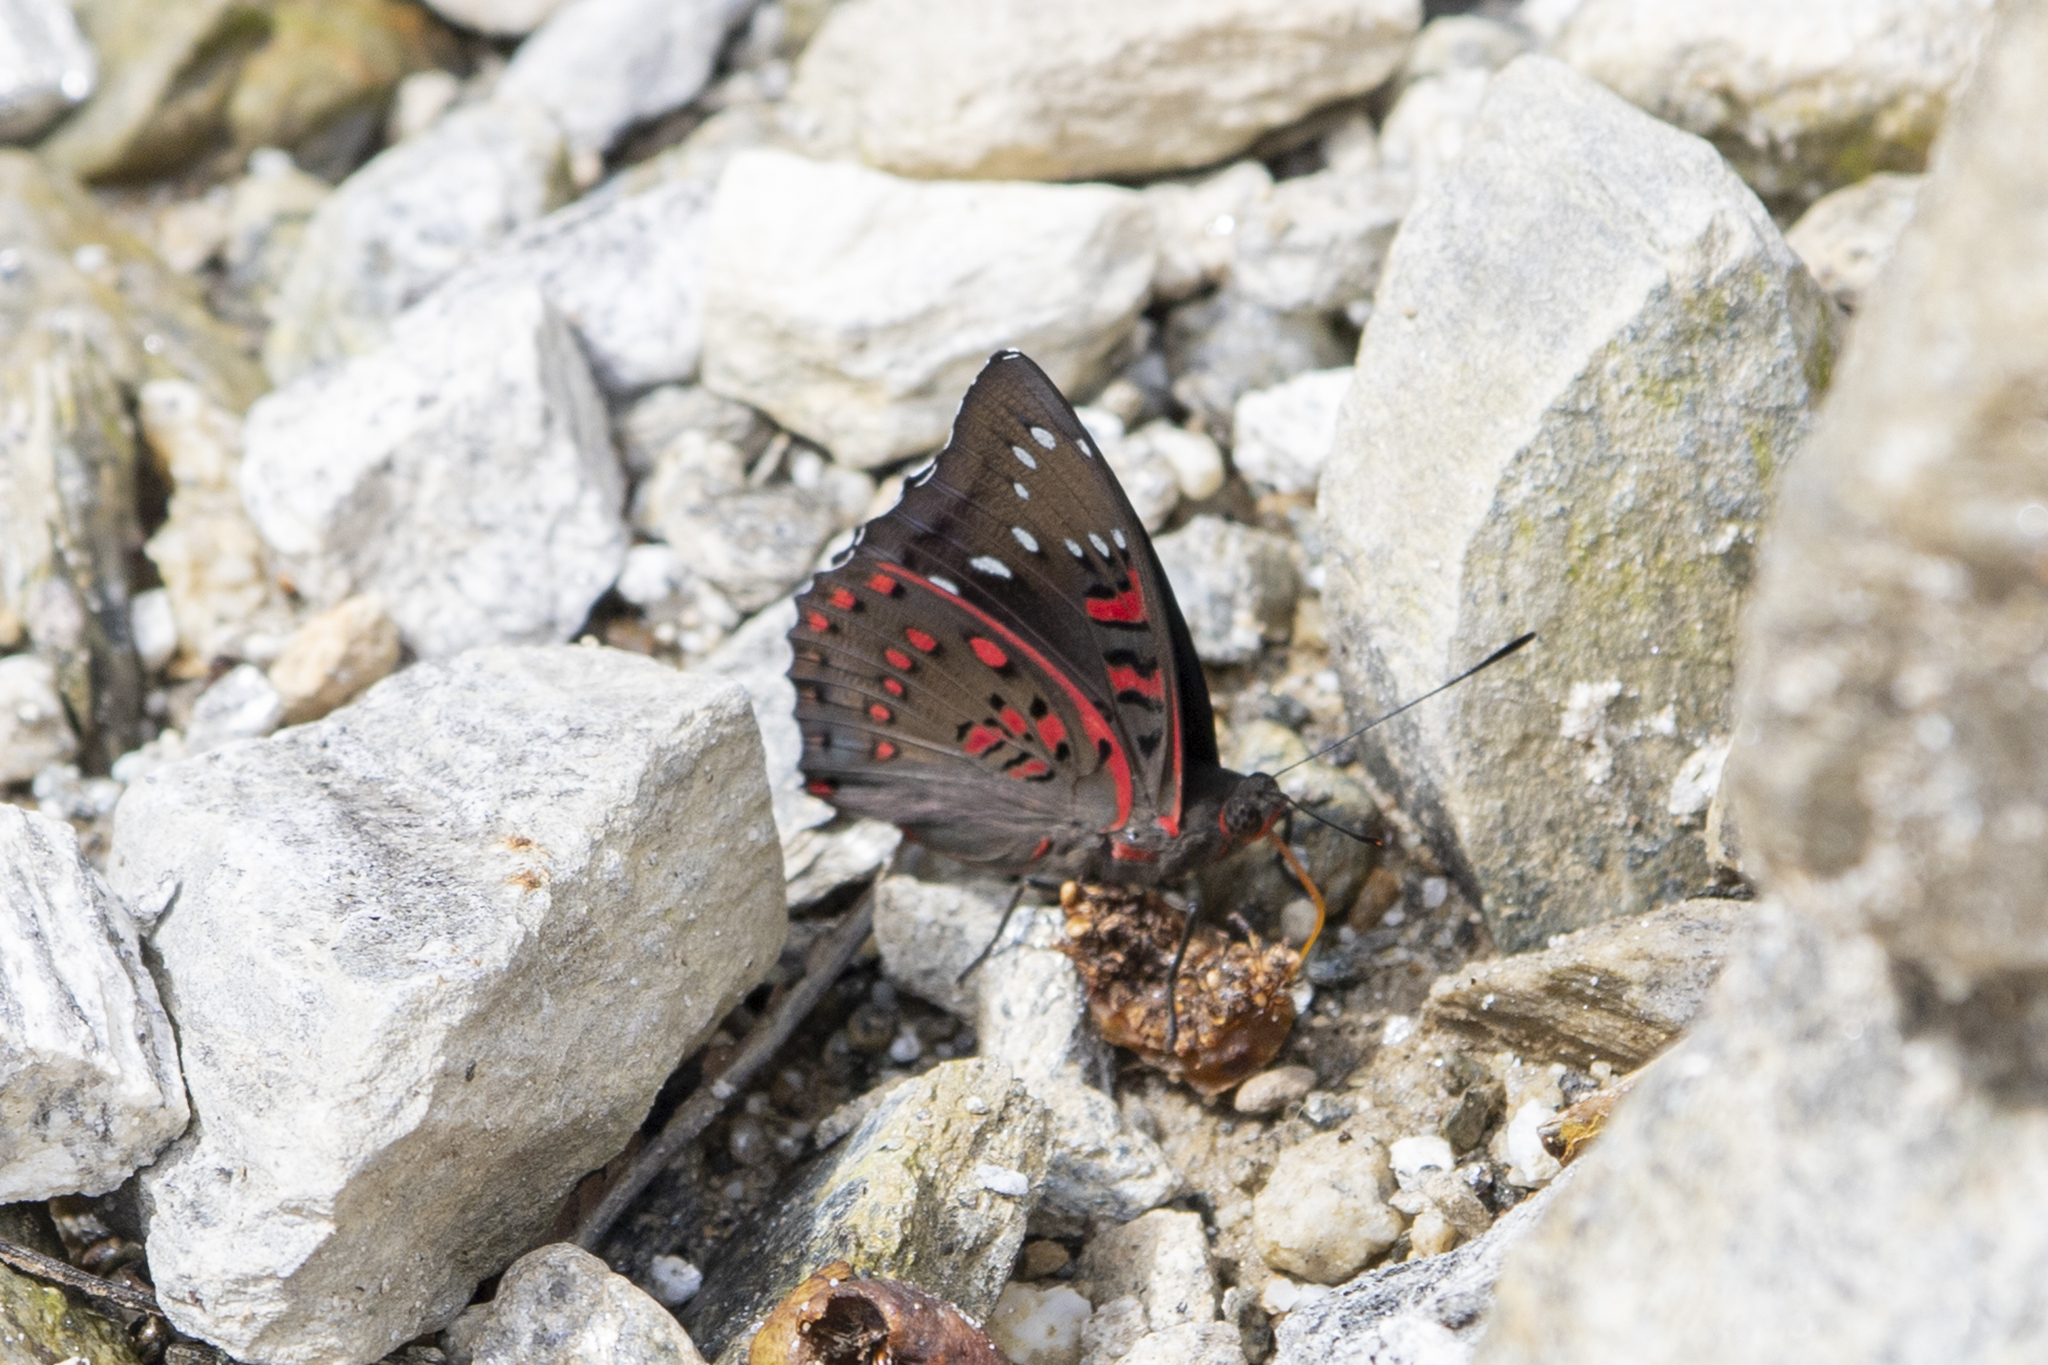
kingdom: Animalia
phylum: Arthropoda
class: Insecta
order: Lepidoptera
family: Nymphalidae
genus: Euthalia
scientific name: Euthalia lubentina
